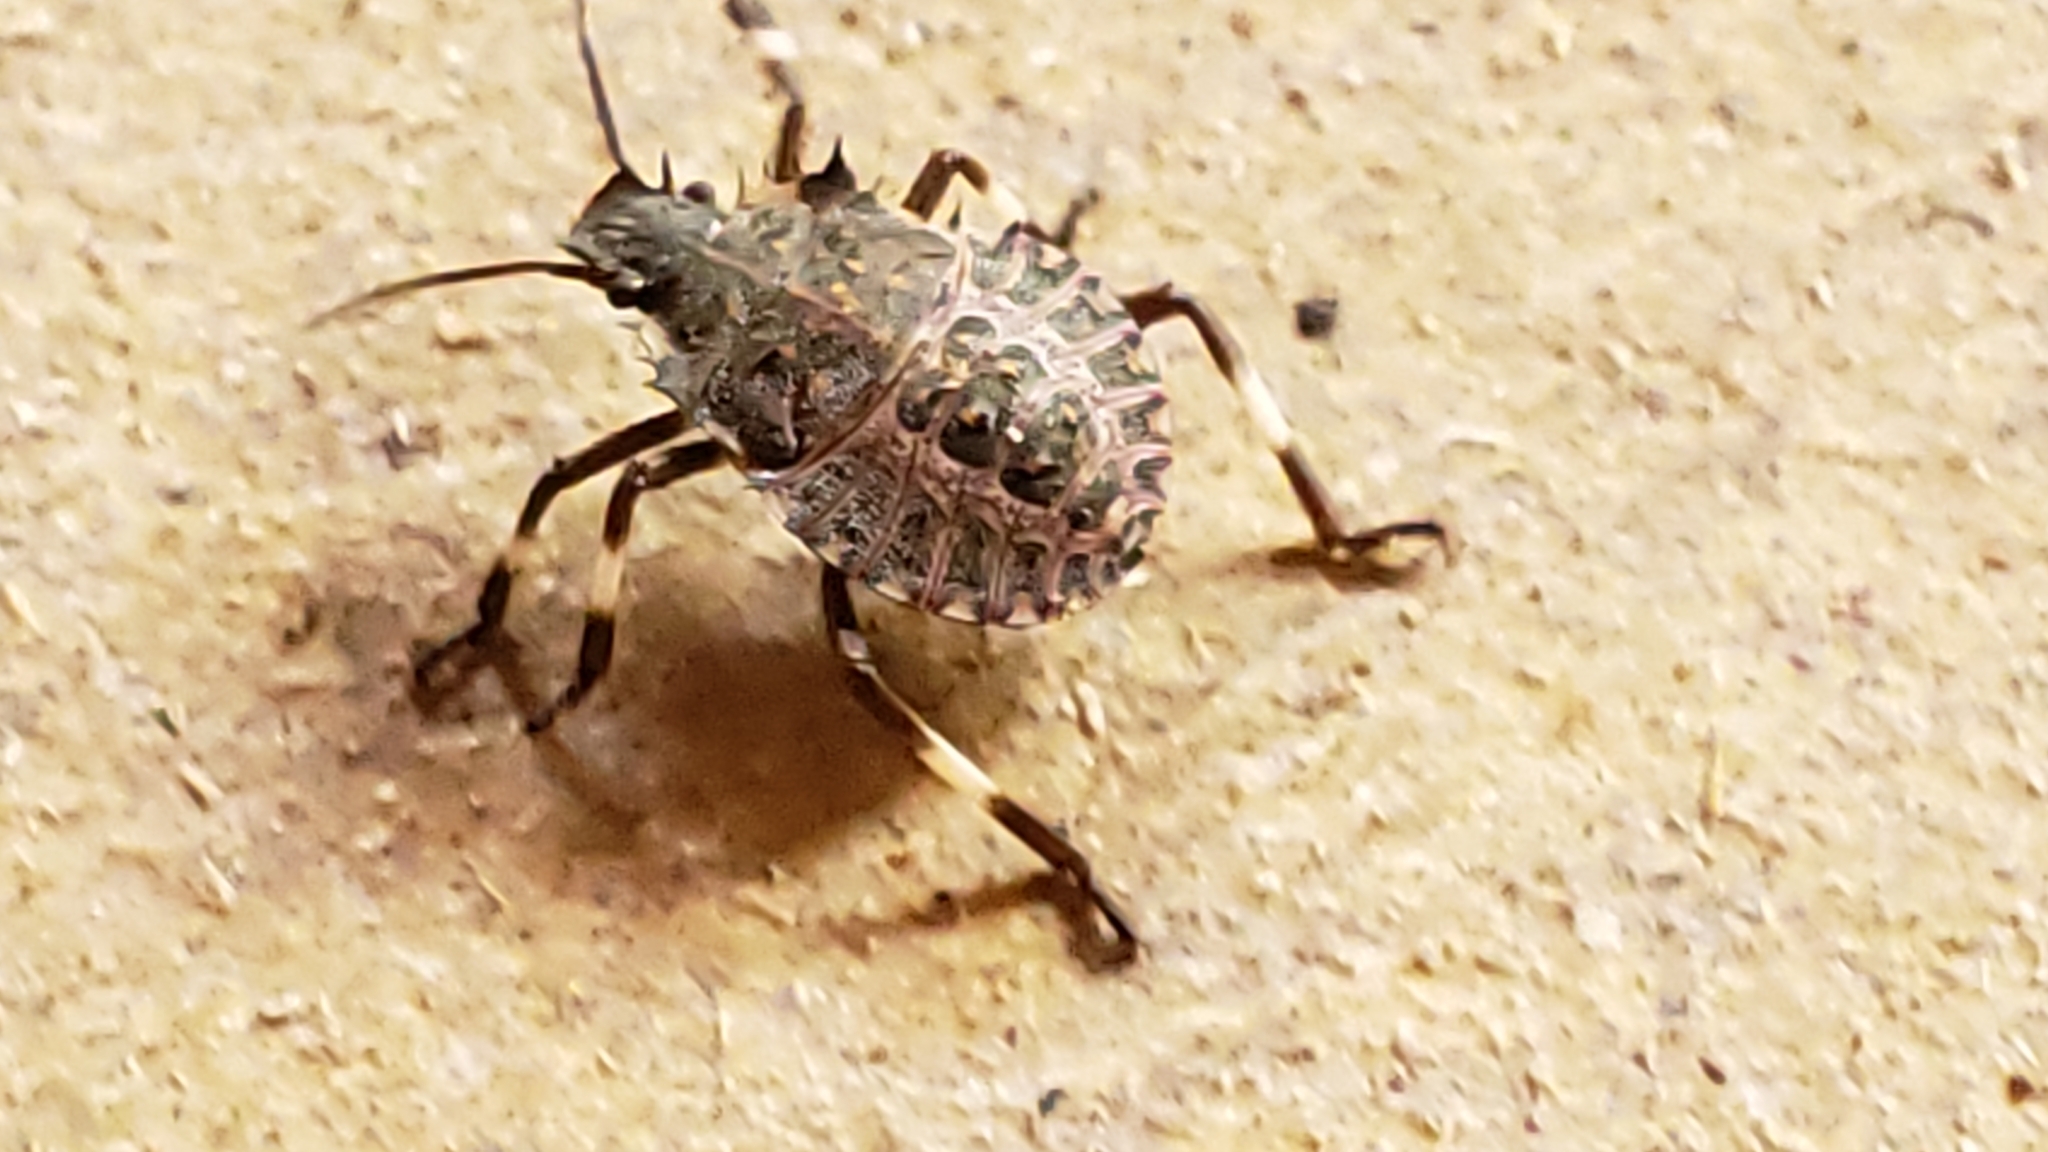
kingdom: Animalia
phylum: Arthropoda
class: Insecta
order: Hemiptera
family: Pentatomidae
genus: Halyomorpha
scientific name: Halyomorpha halys
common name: Brown marmorated stink bug
